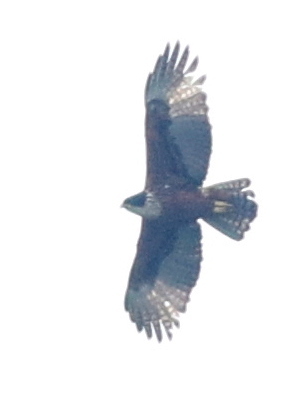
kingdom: Animalia
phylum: Chordata
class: Aves
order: Accipitriformes
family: Accipitridae
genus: Lophotriorchis
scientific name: Lophotriorchis kienerii
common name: Rufous-bellied eagle
